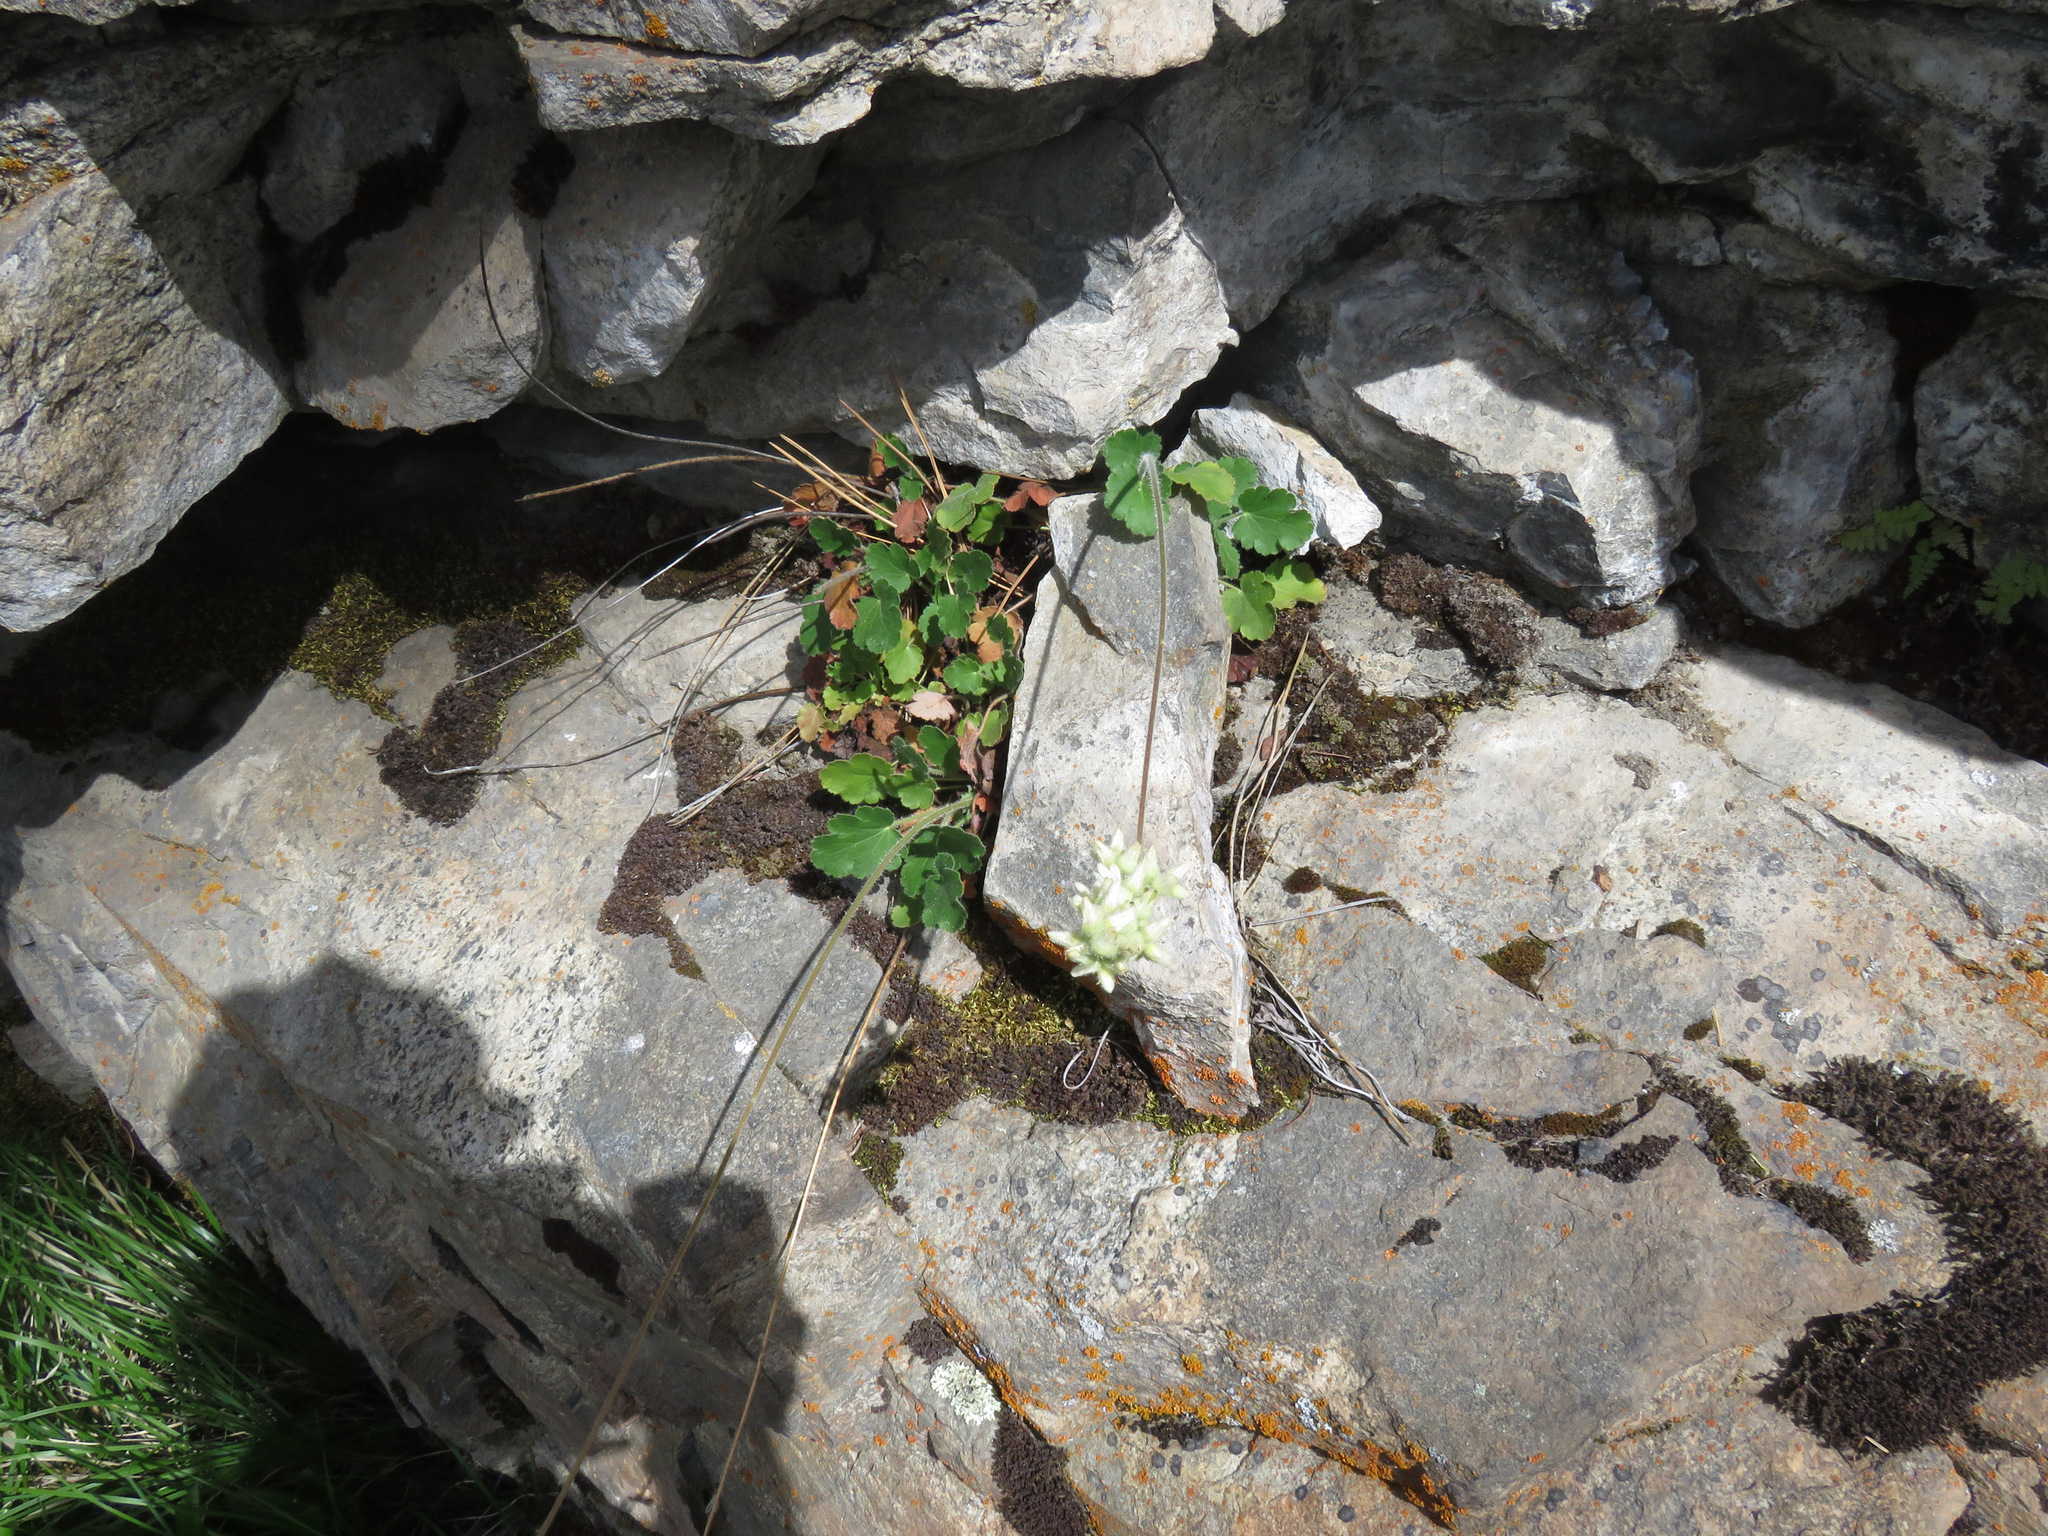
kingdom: Plantae
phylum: Tracheophyta
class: Magnoliopsida
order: Saxifragales
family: Saxifragaceae
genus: Heuchera
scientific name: Heuchera cylindrica
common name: Mat alumroot
